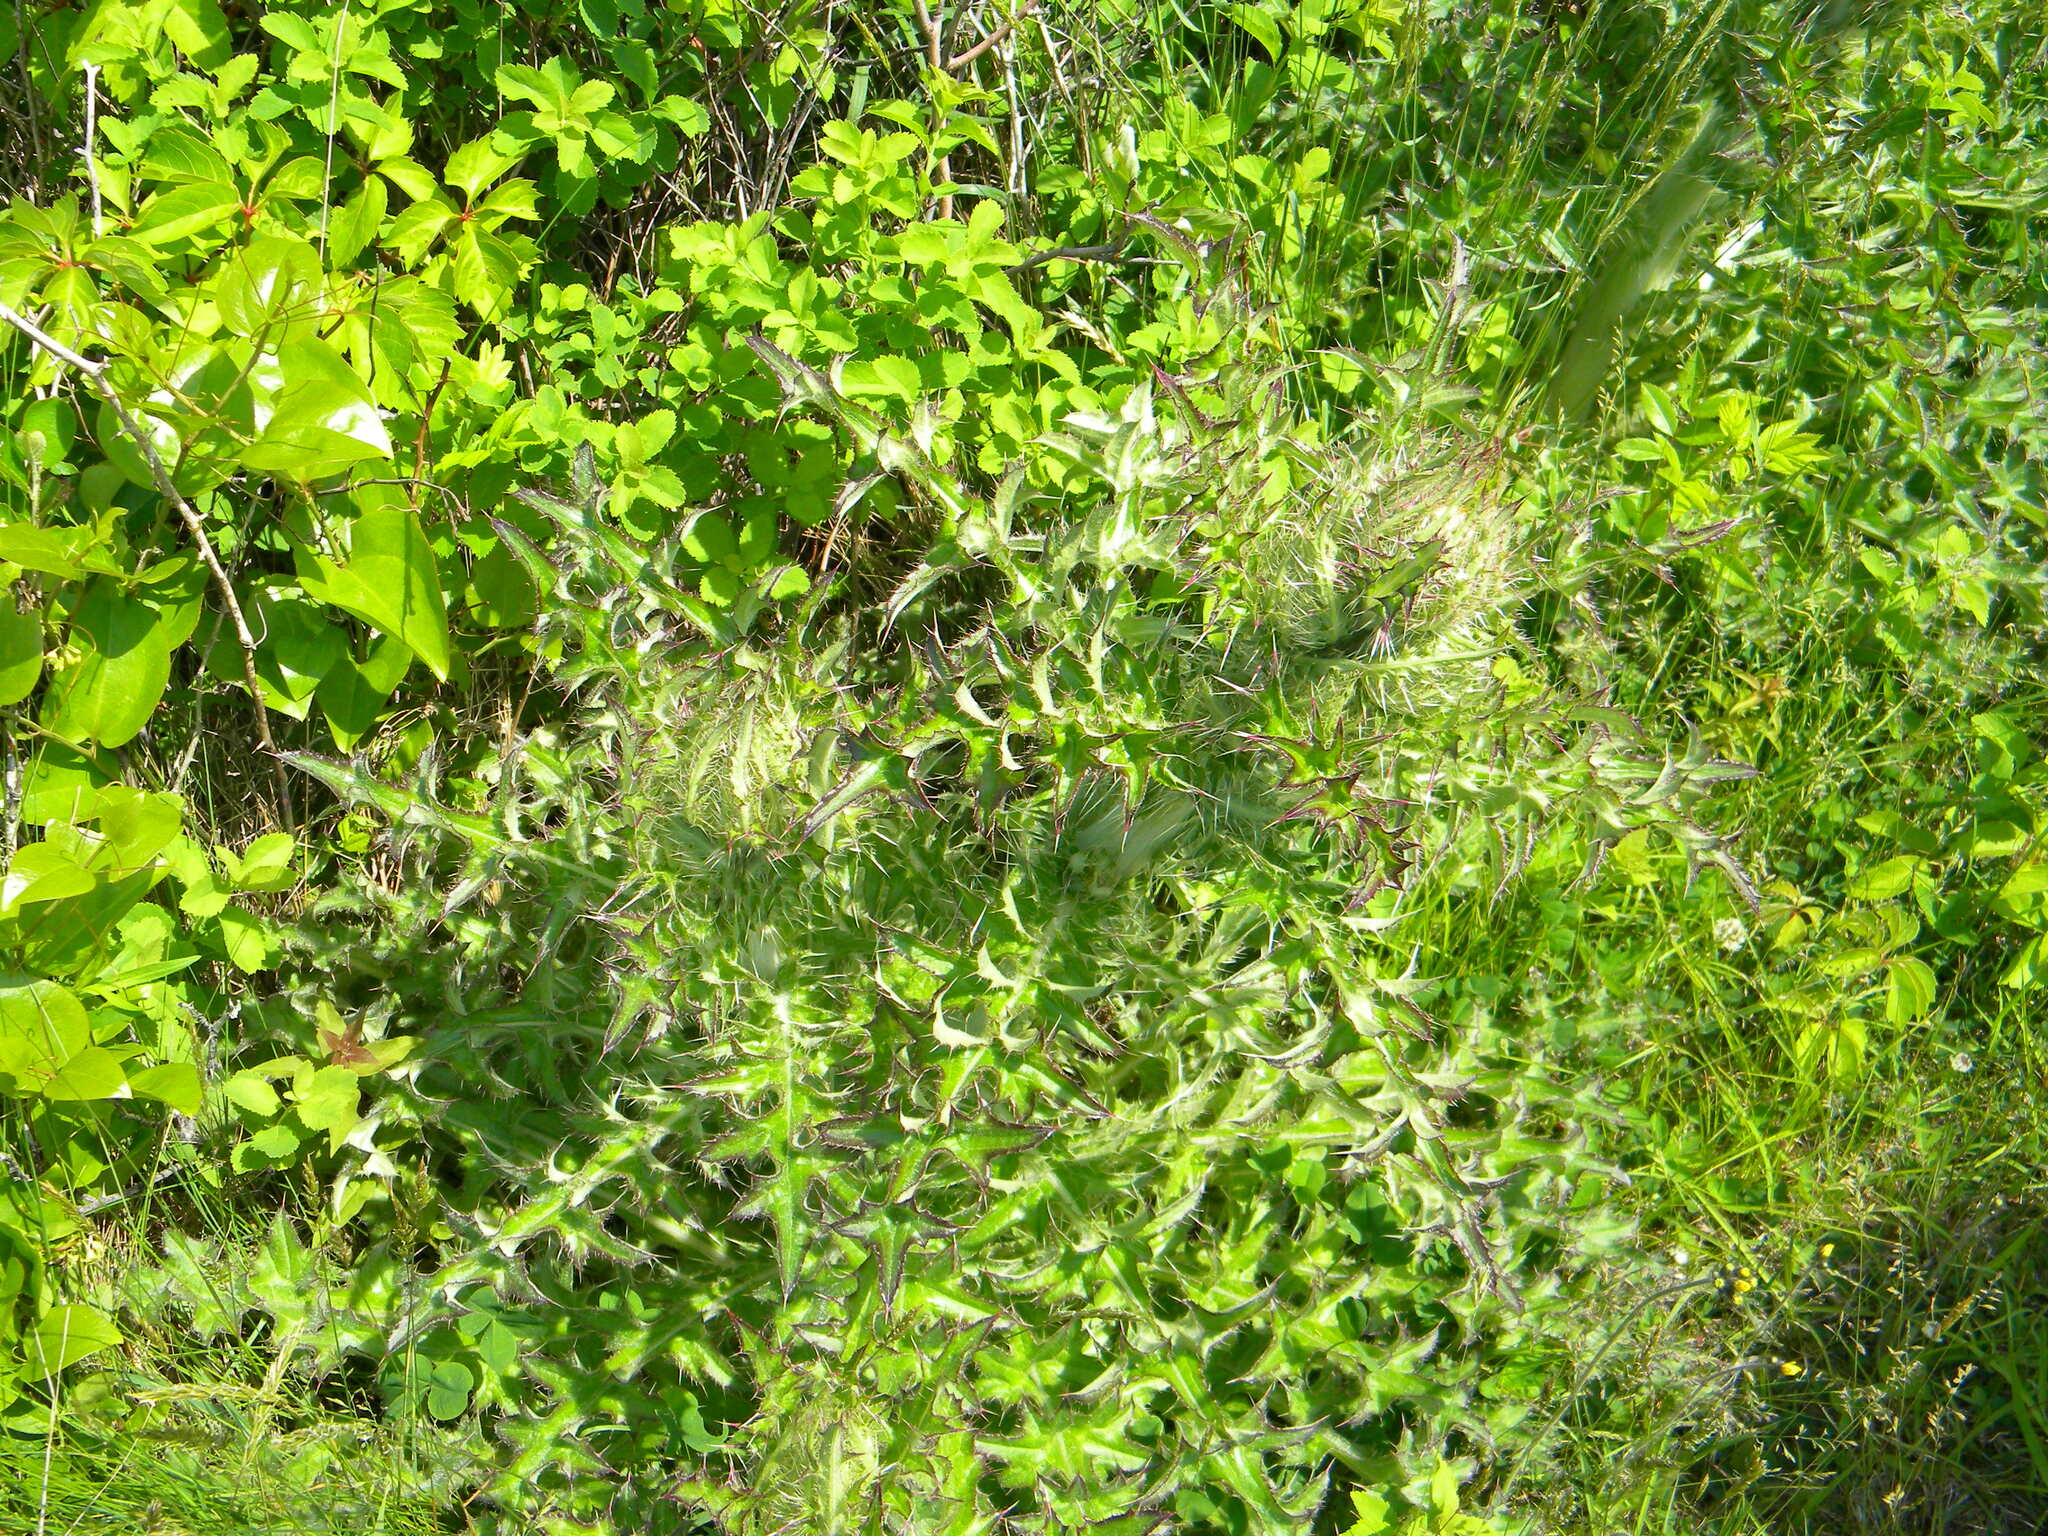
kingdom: Plantae
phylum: Tracheophyta
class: Magnoliopsida
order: Asterales
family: Asteraceae
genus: Cirsium
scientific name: Cirsium horridulum
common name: Bristly thistle
